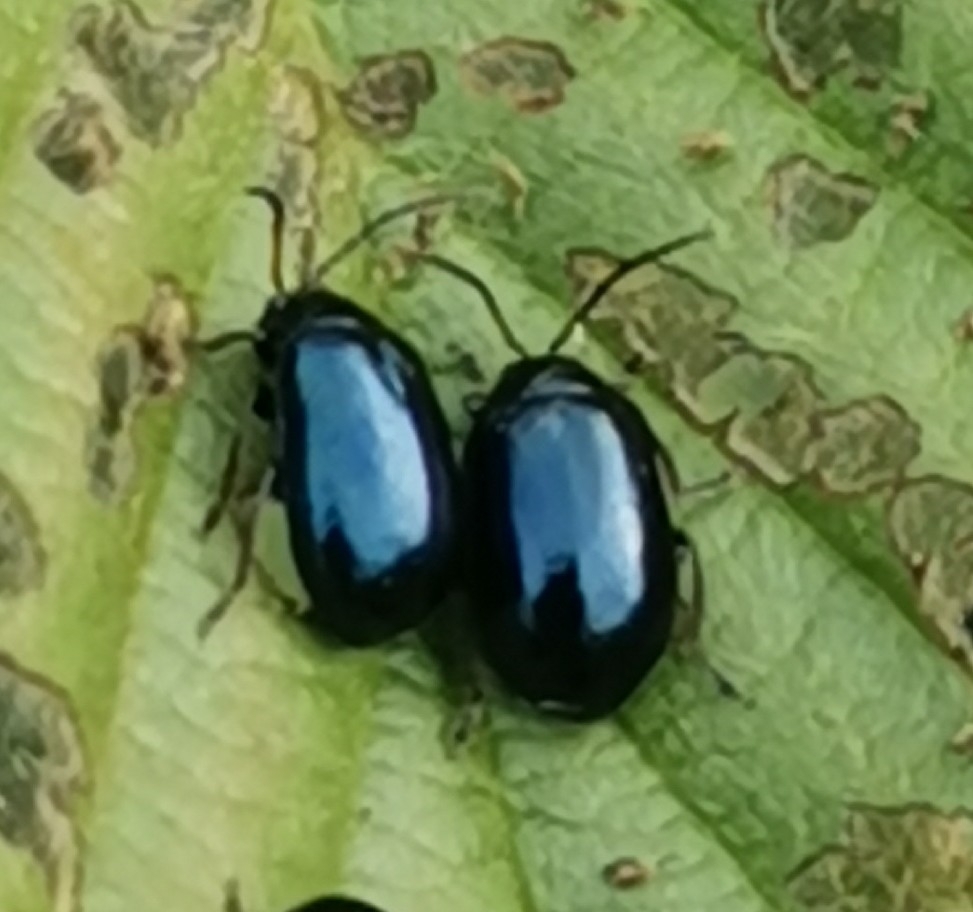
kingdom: Animalia
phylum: Arthropoda
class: Insecta
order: Coleoptera
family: Chrysomelidae
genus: Agelastica
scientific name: Agelastica alni
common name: Alder leaf beetle
